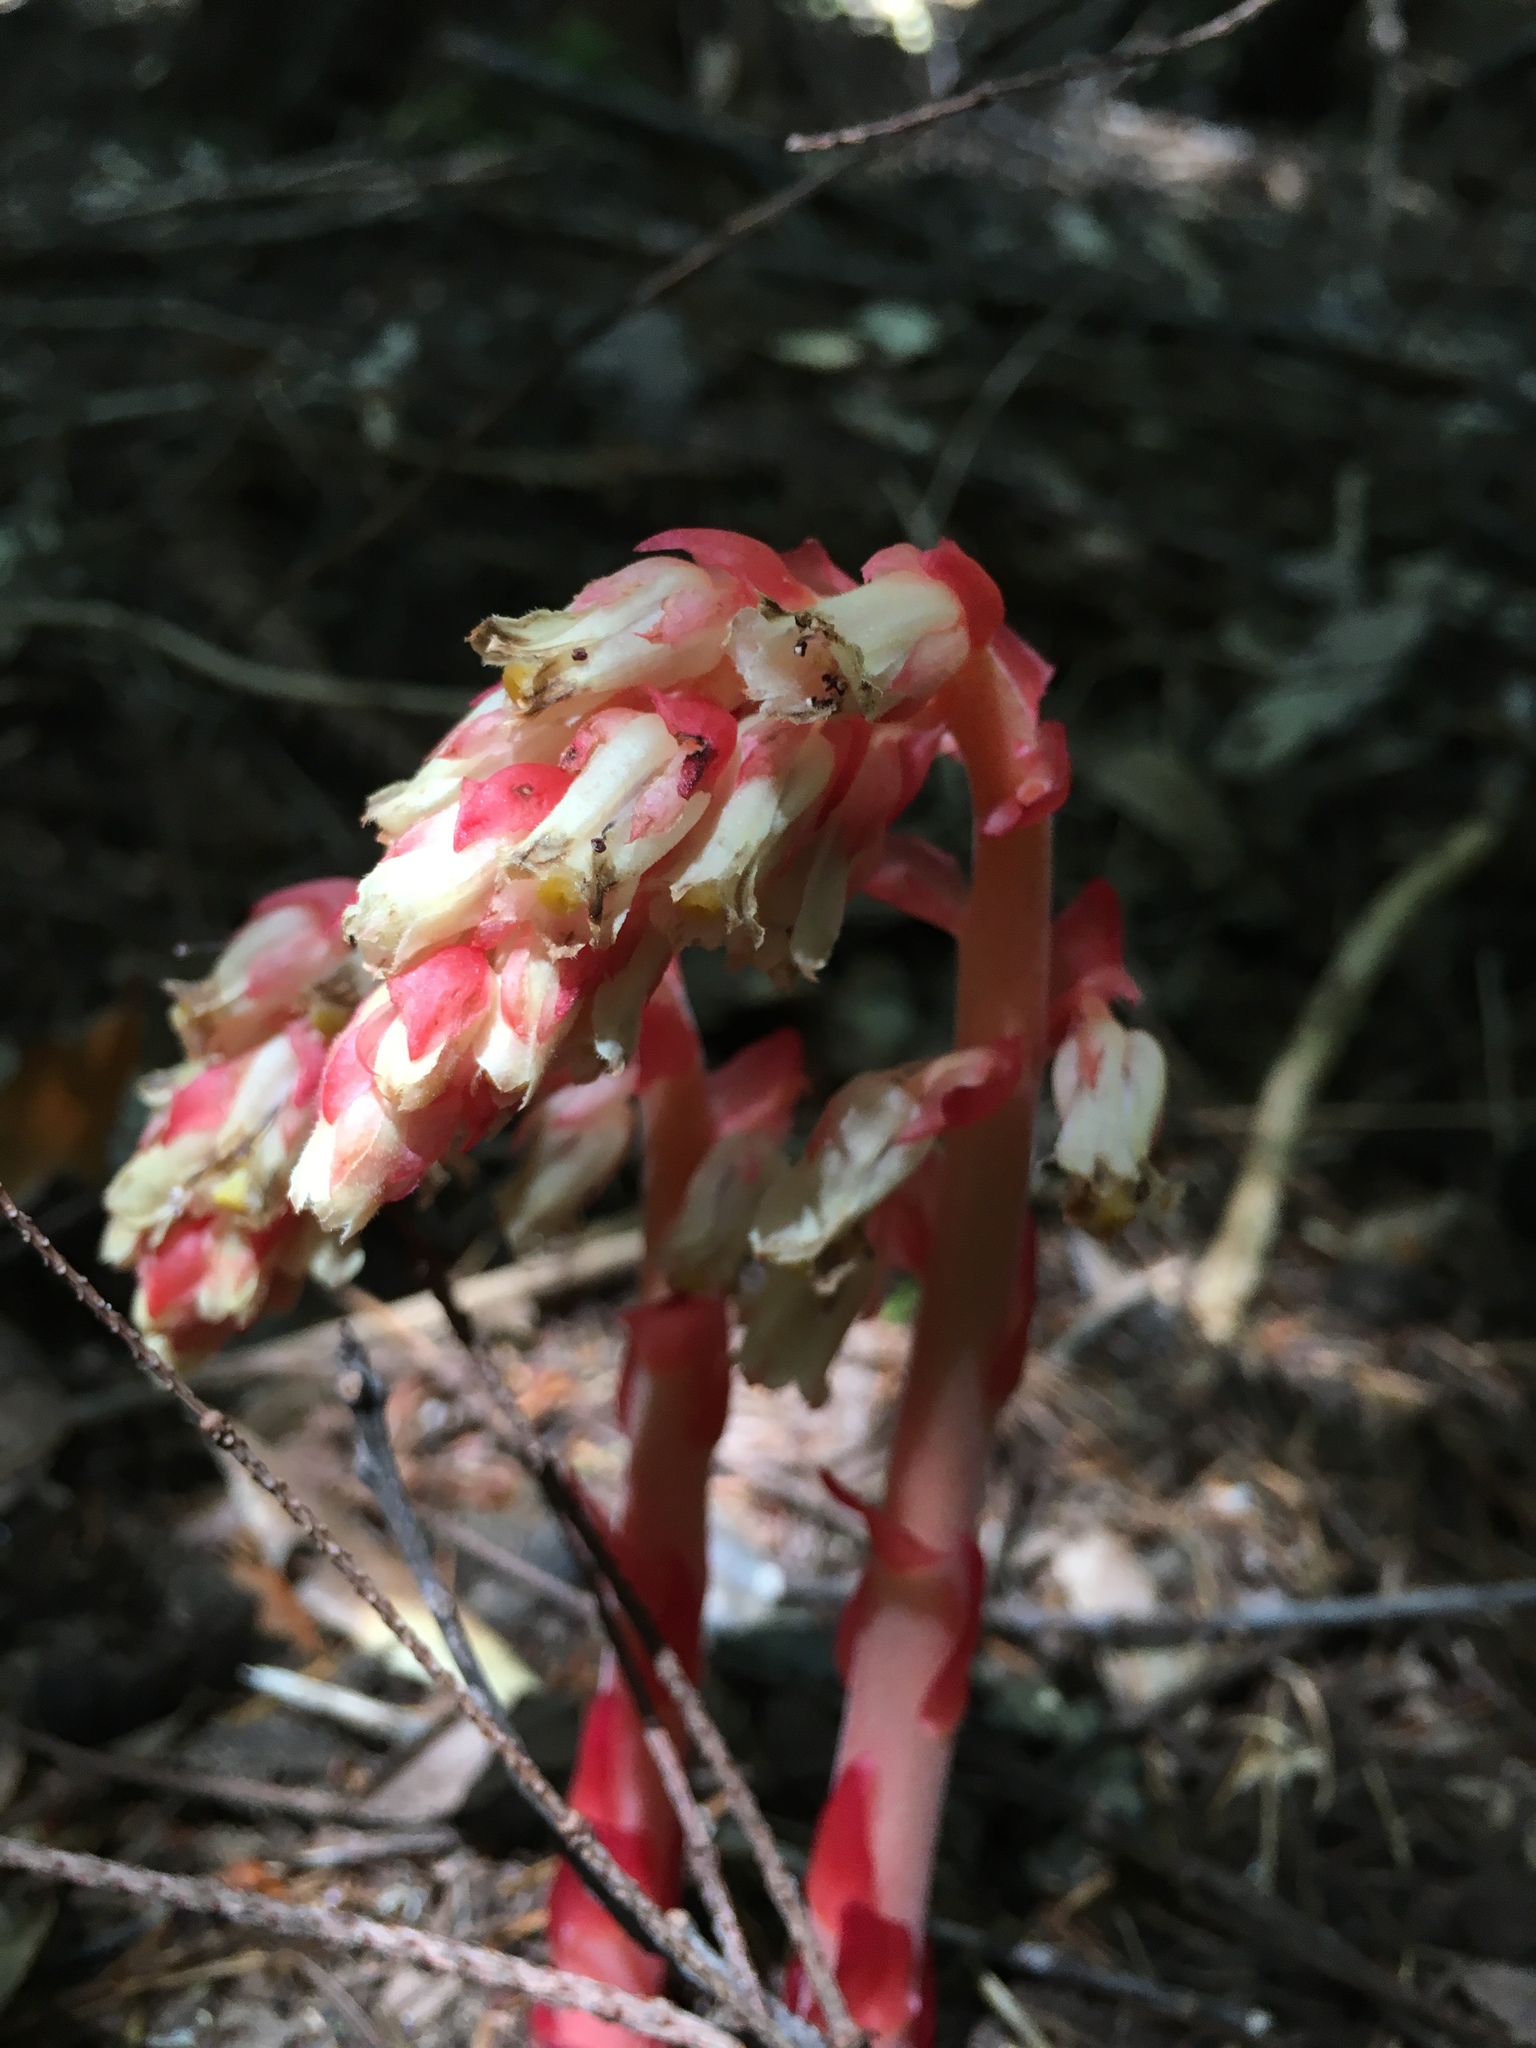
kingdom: Plantae
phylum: Tracheophyta
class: Magnoliopsida
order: Ericales
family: Ericaceae
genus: Hypopitys
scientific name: Hypopitys monotropa
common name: Yellow bird's-nest
